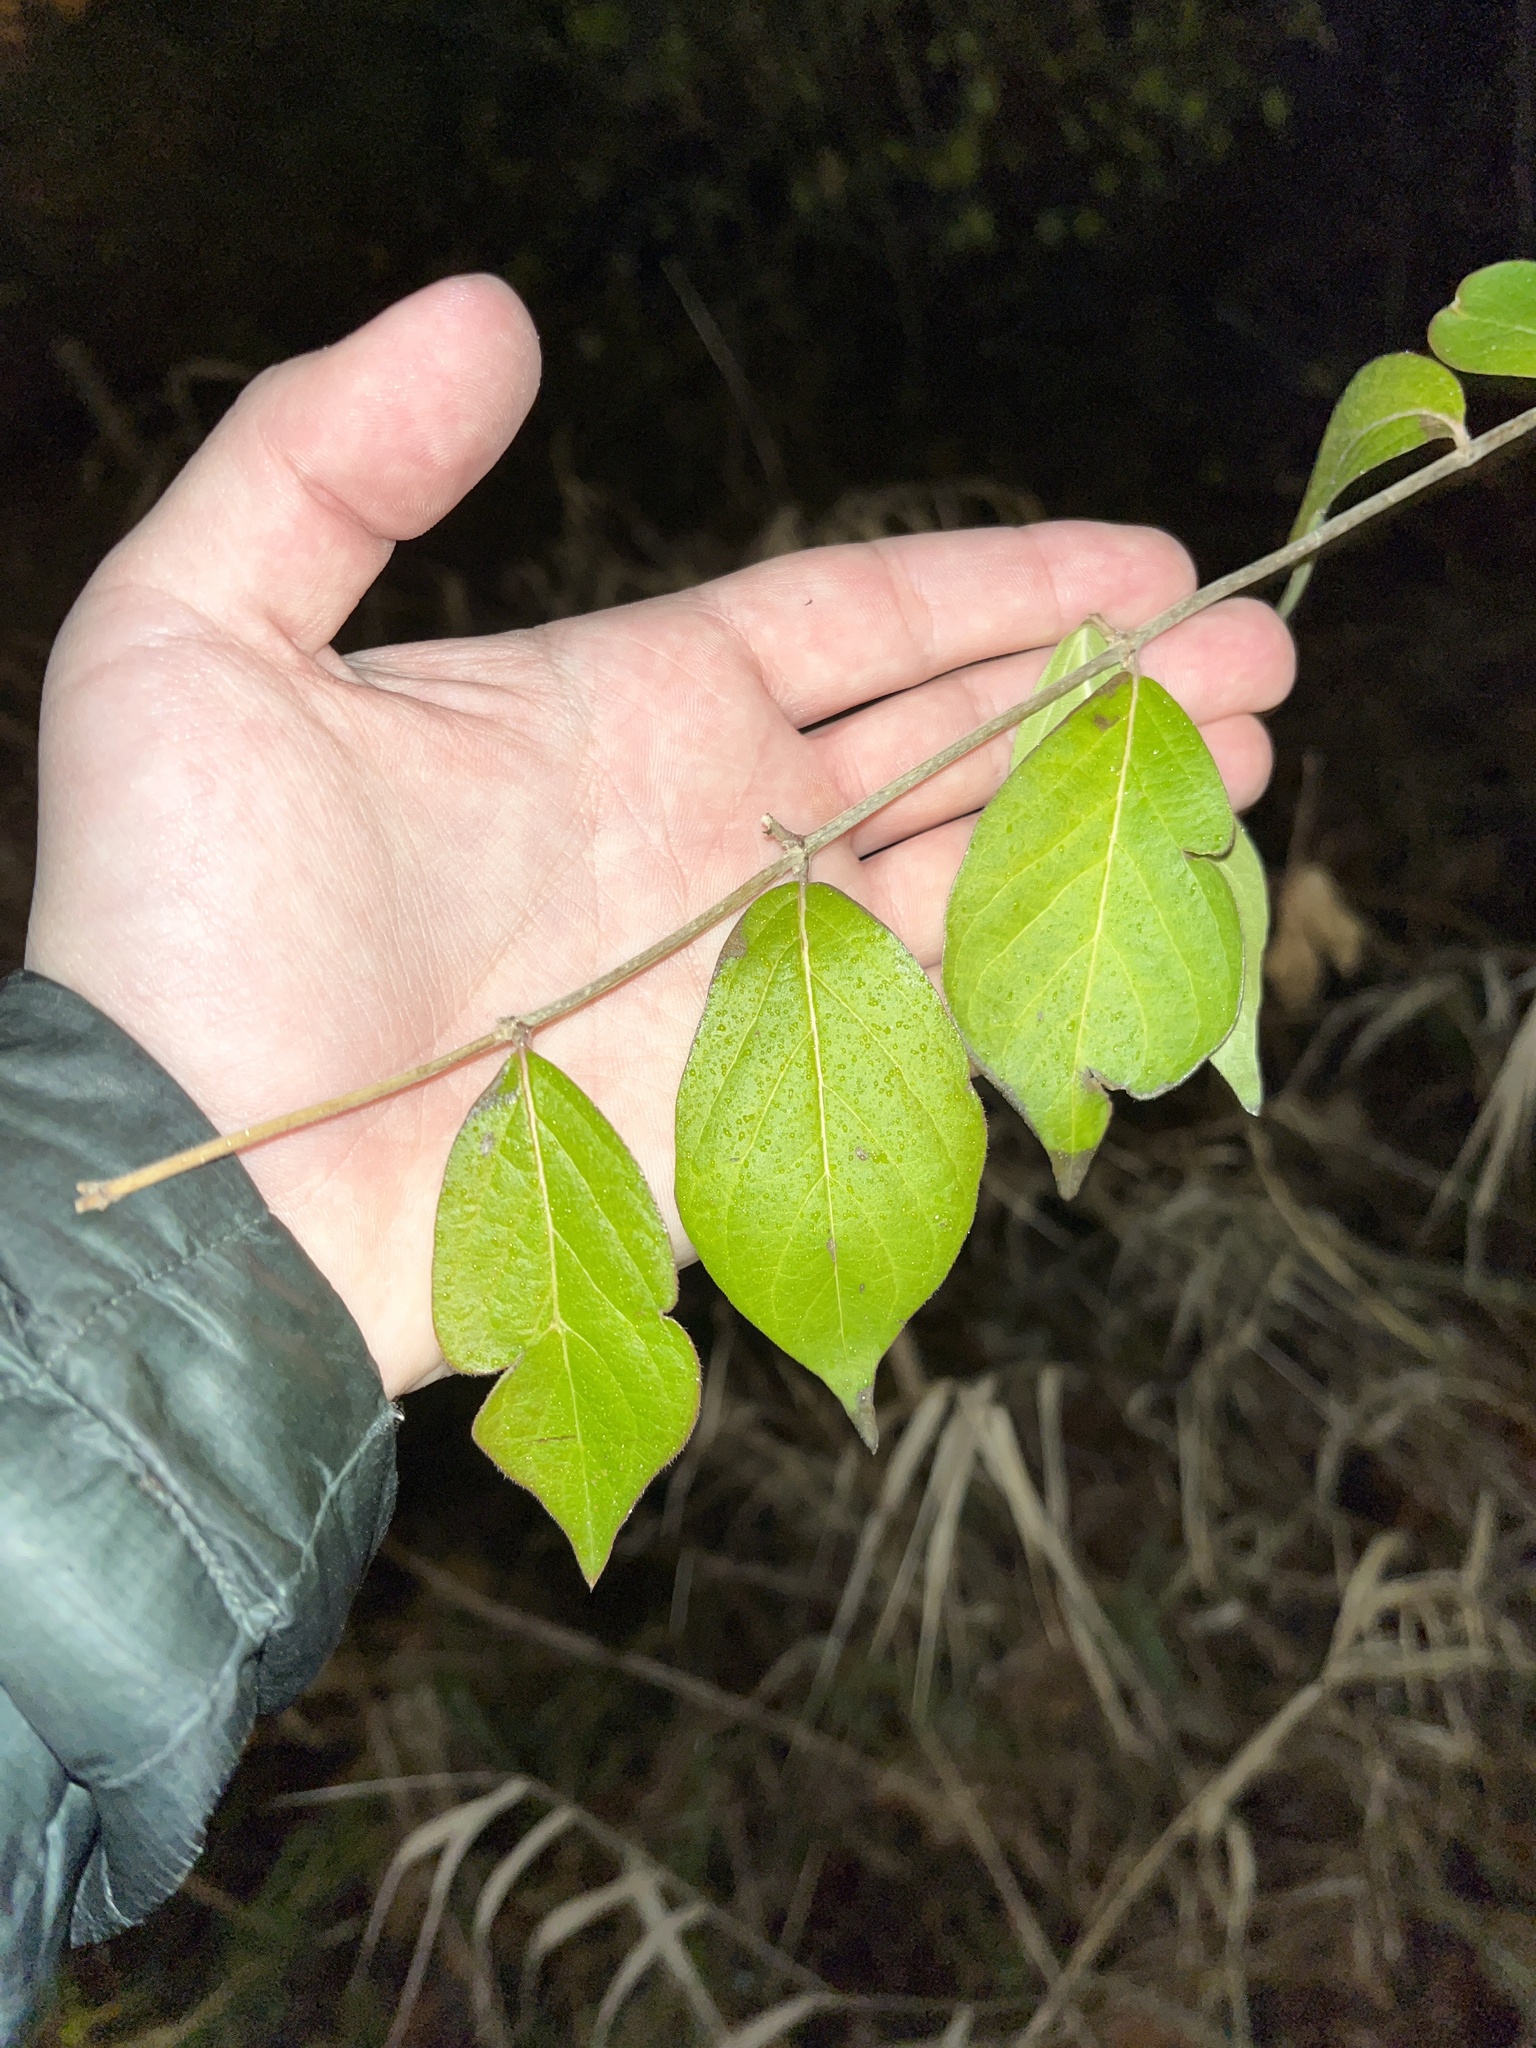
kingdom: Plantae
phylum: Tracheophyta
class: Magnoliopsida
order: Dipsacales
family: Caprifoliaceae
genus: Lonicera
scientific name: Lonicera maackii
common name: Amur honeysuckle
